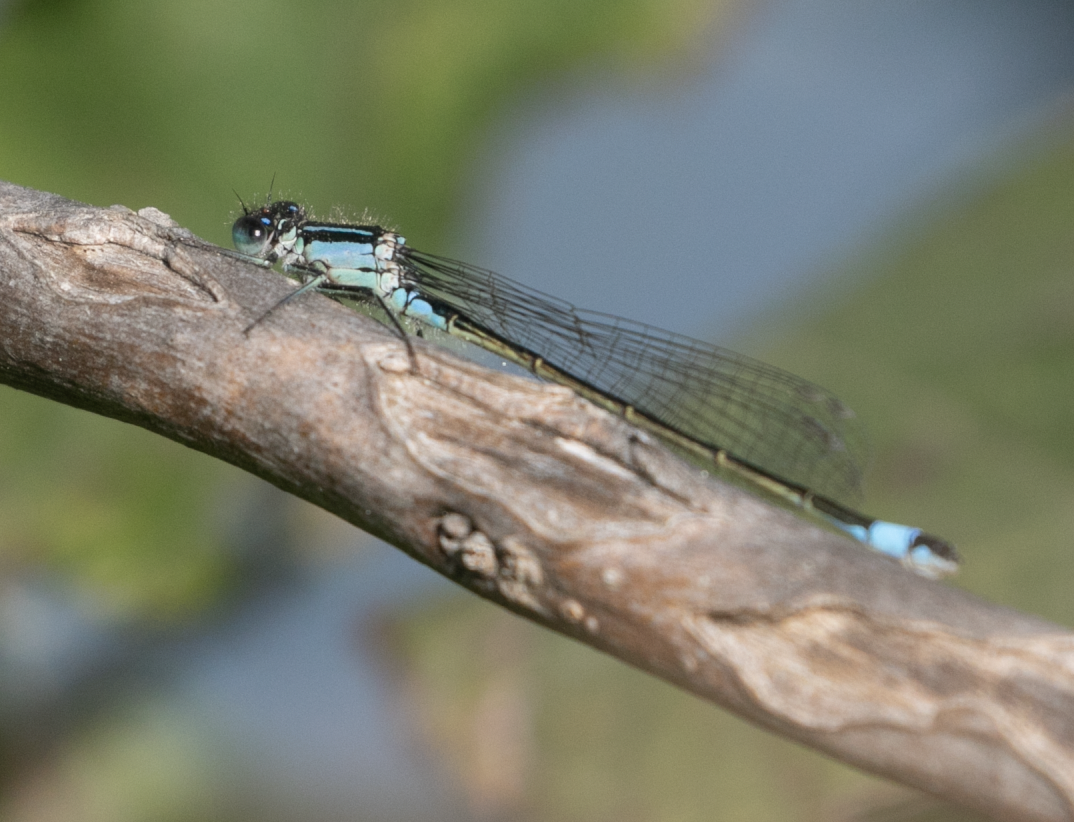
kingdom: Animalia
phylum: Arthropoda
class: Insecta
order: Odonata
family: Coenagrionidae
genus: Ischnura
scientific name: Ischnura elegans
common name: Blue-tailed damselfly
